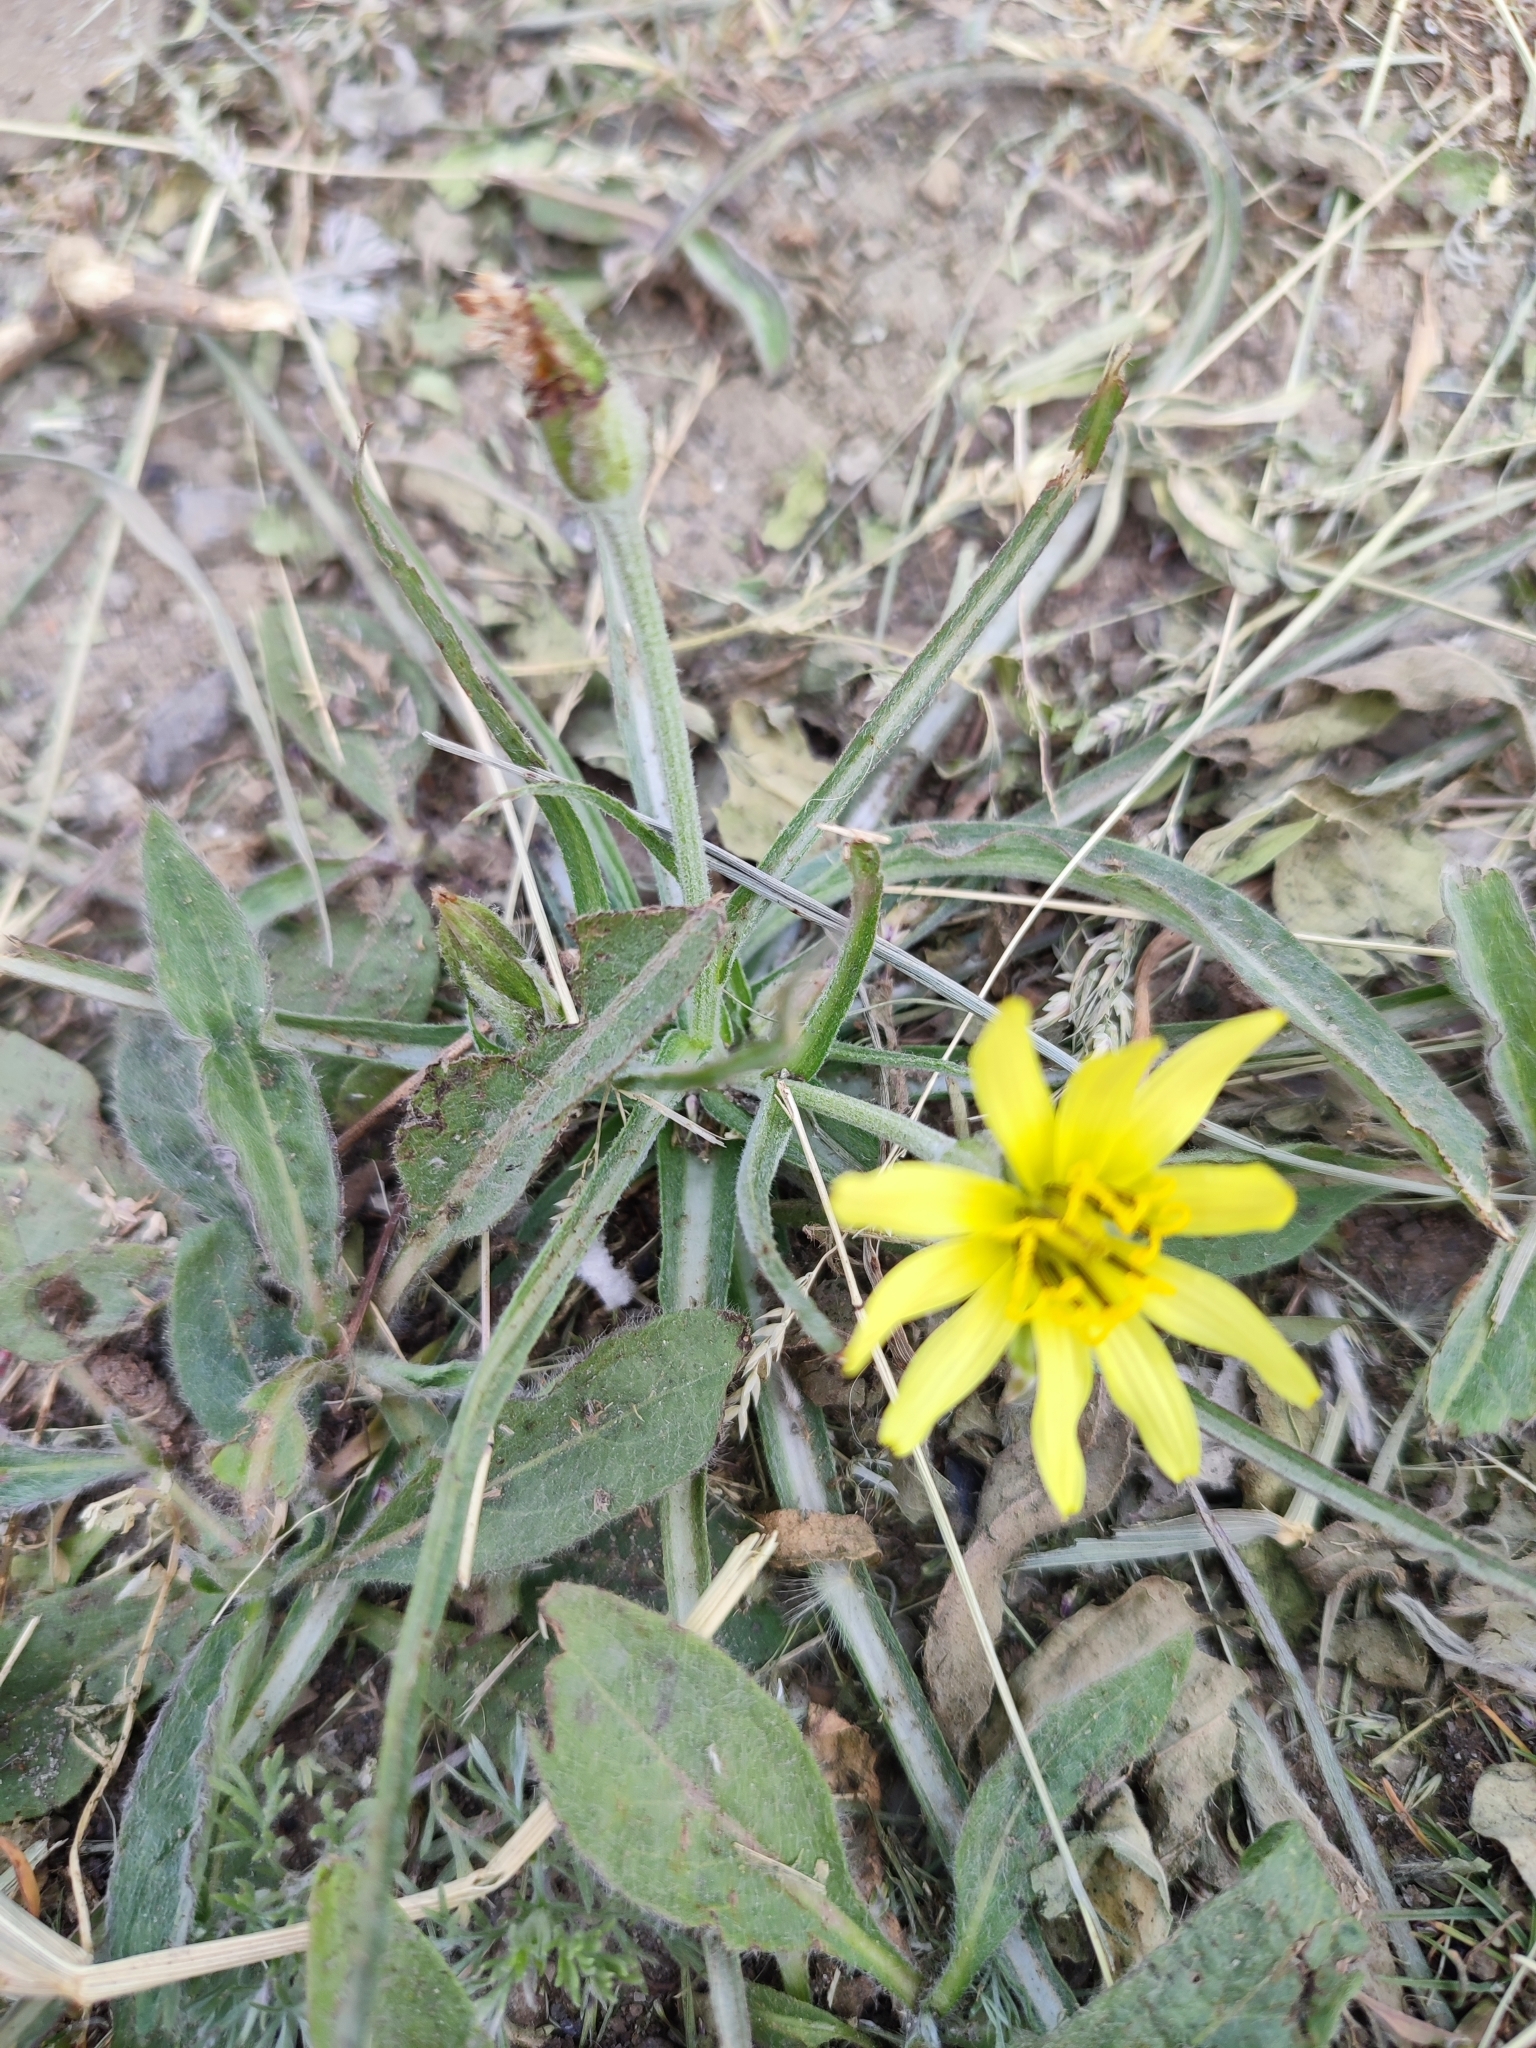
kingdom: Plantae
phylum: Tracheophyta
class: Magnoliopsida
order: Asterales
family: Asteraceae
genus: Candollea
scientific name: Candollea mollis
